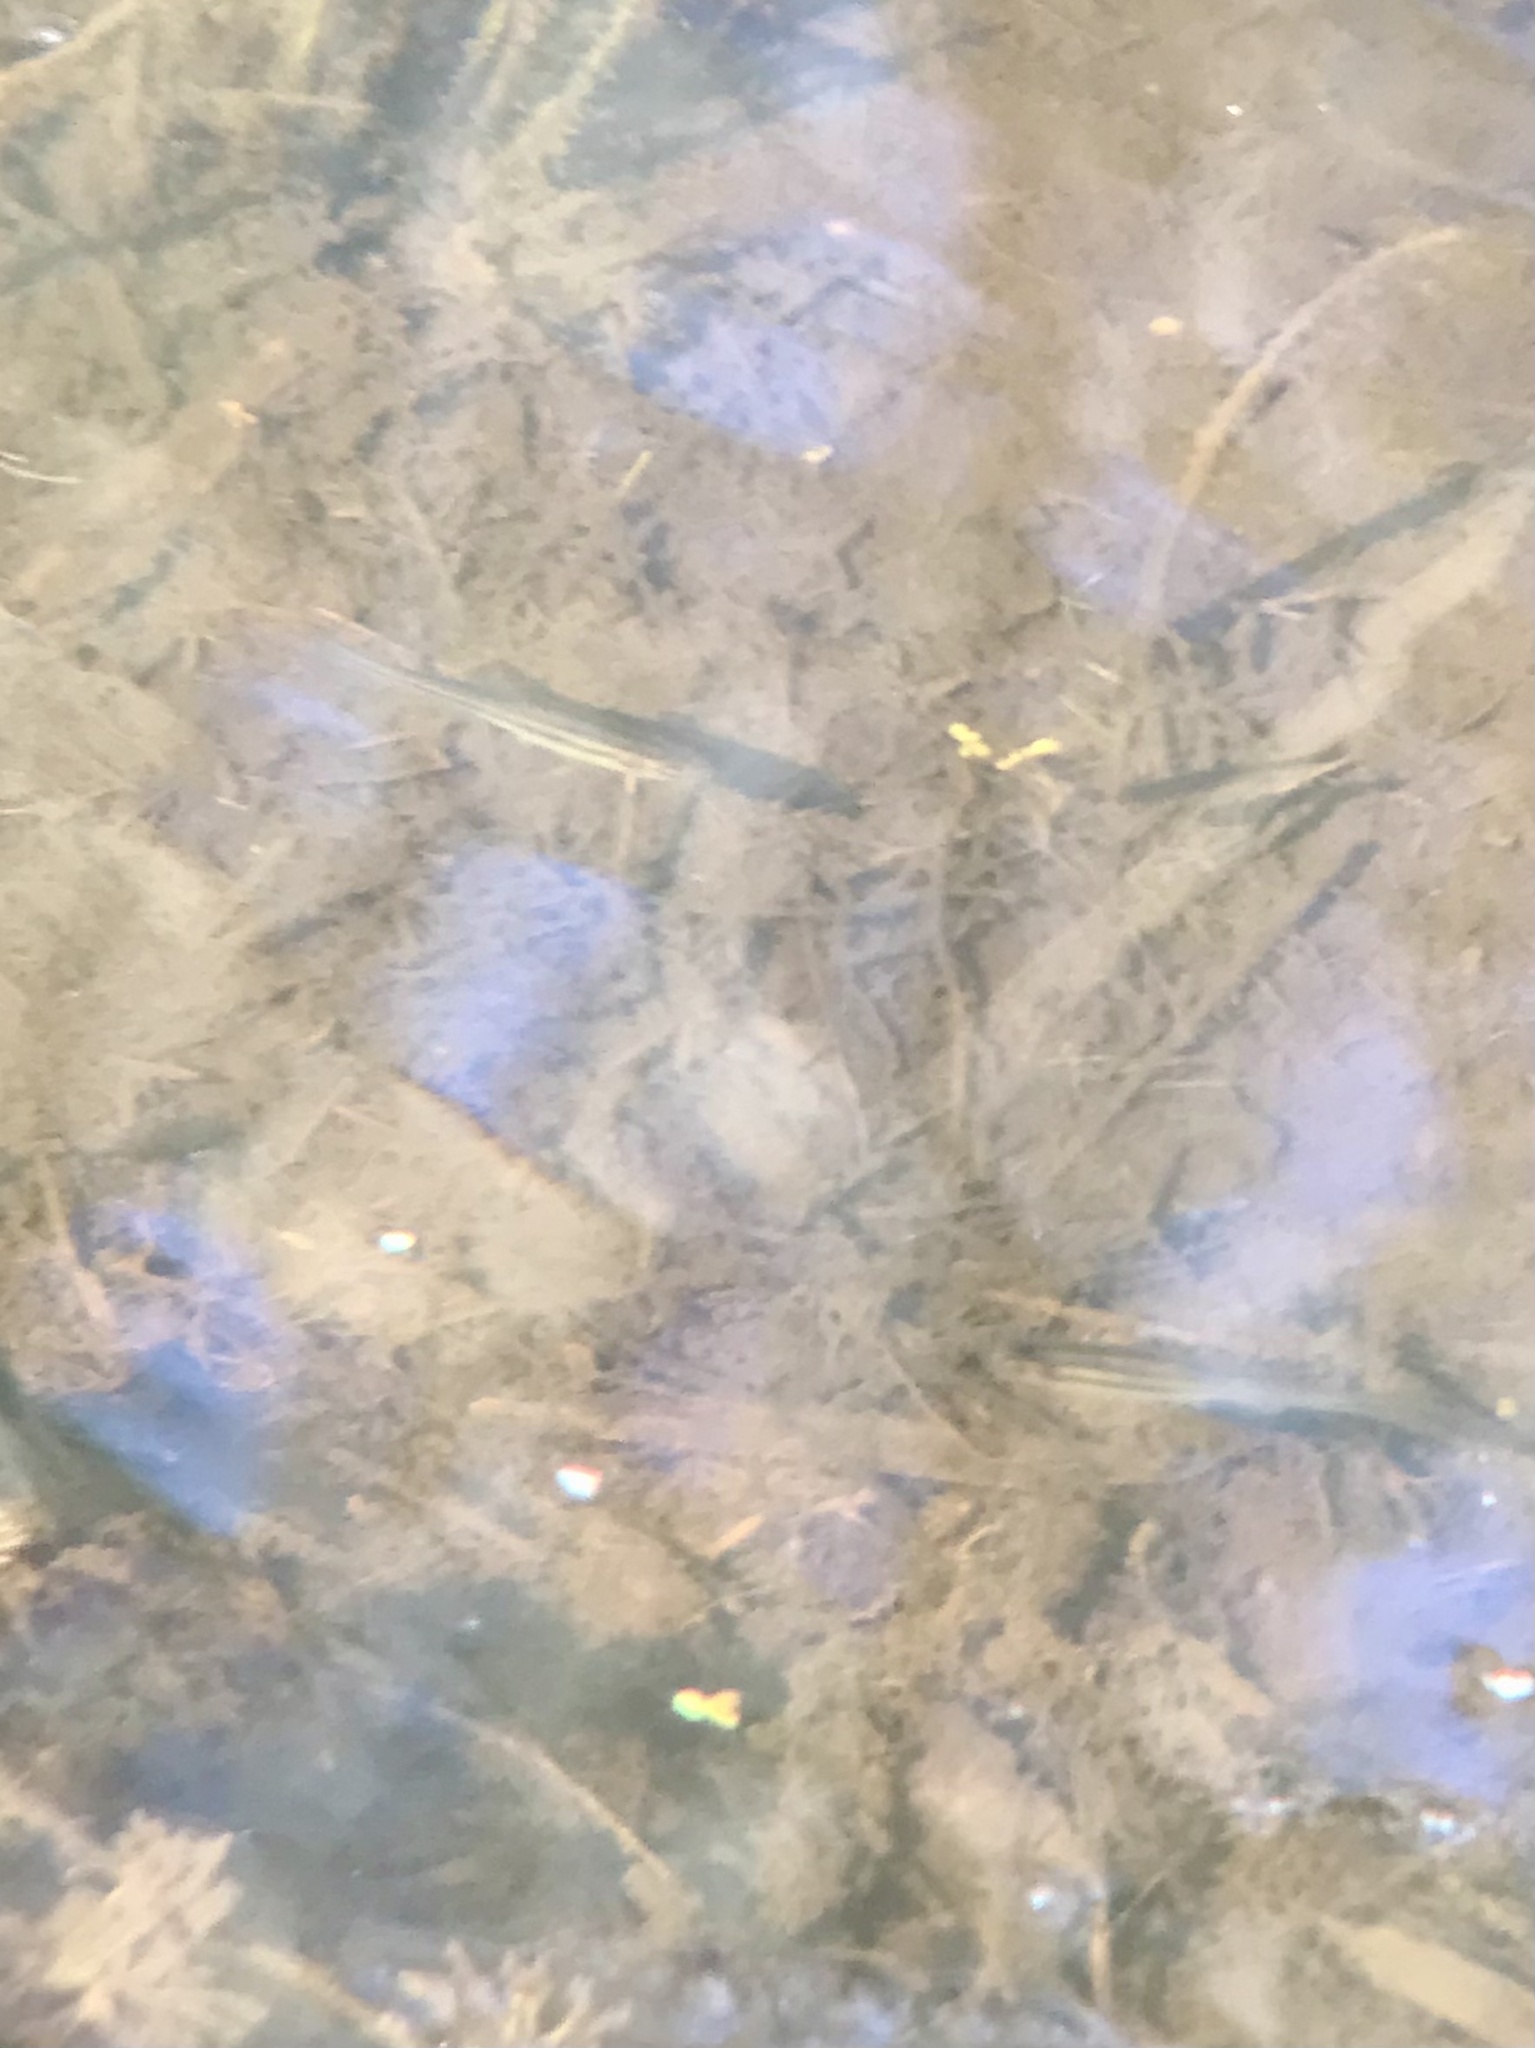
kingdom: Animalia
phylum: Chordata
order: Cypriniformes
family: Cyprinidae
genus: Chrosomus
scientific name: Chrosomus eos
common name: Northern redbelly dace
